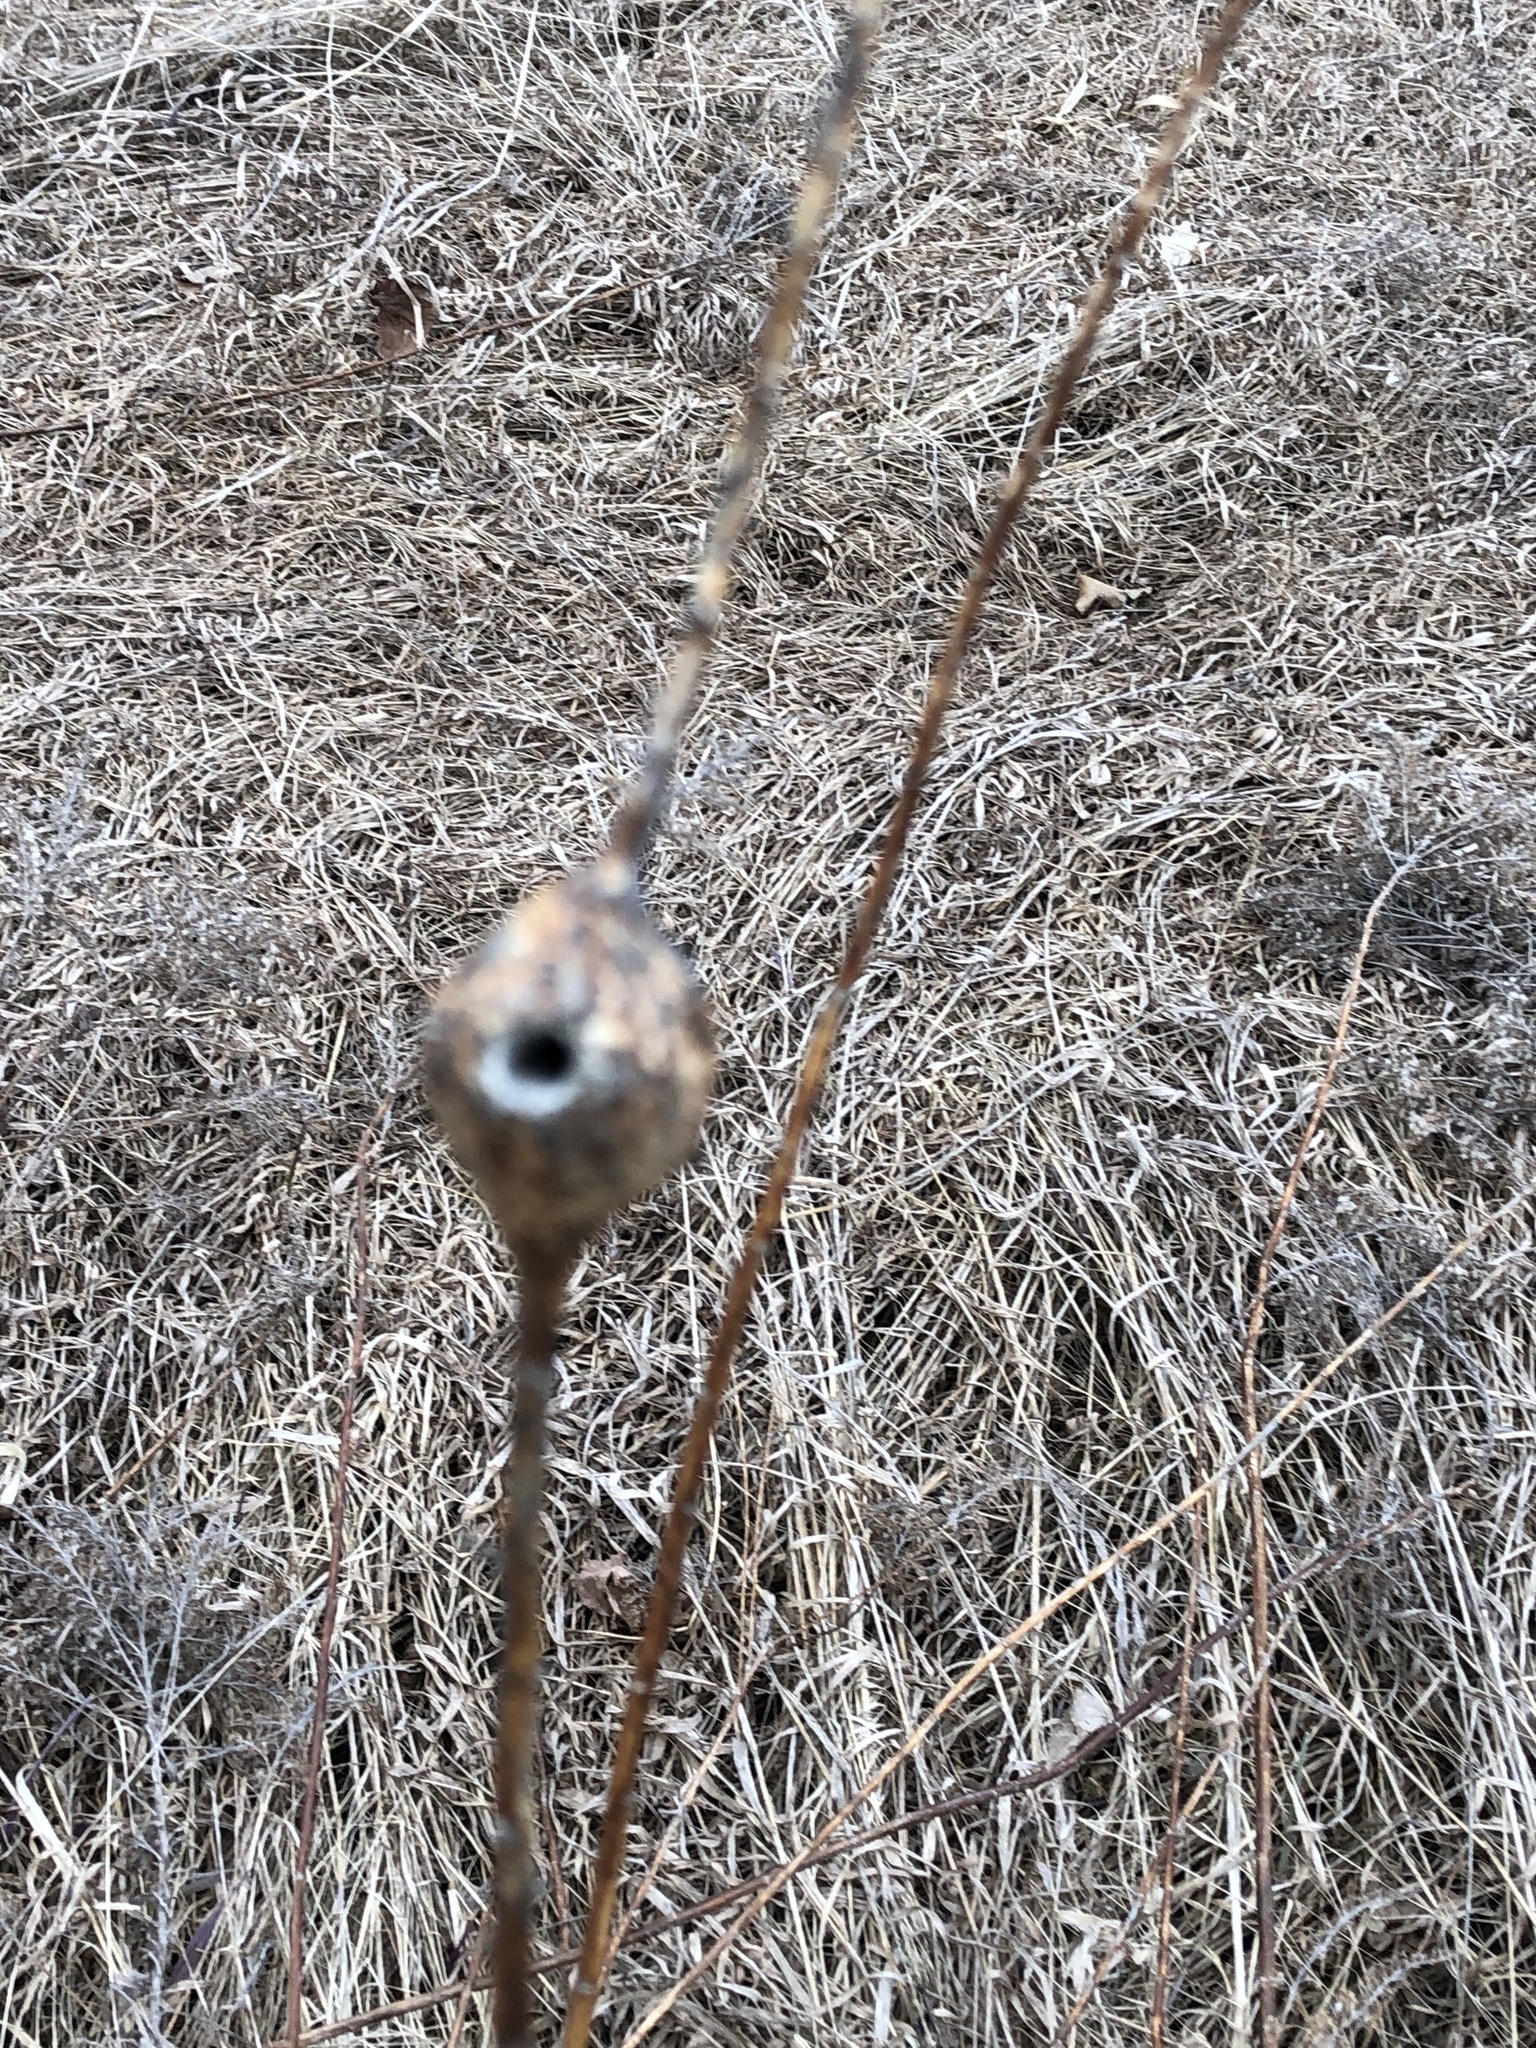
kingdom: Animalia
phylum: Arthropoda
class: Insecta
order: Diptera
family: Tephritidae
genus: Eurosta
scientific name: Eurosta solidaginis
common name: Goldenrod gall fly
